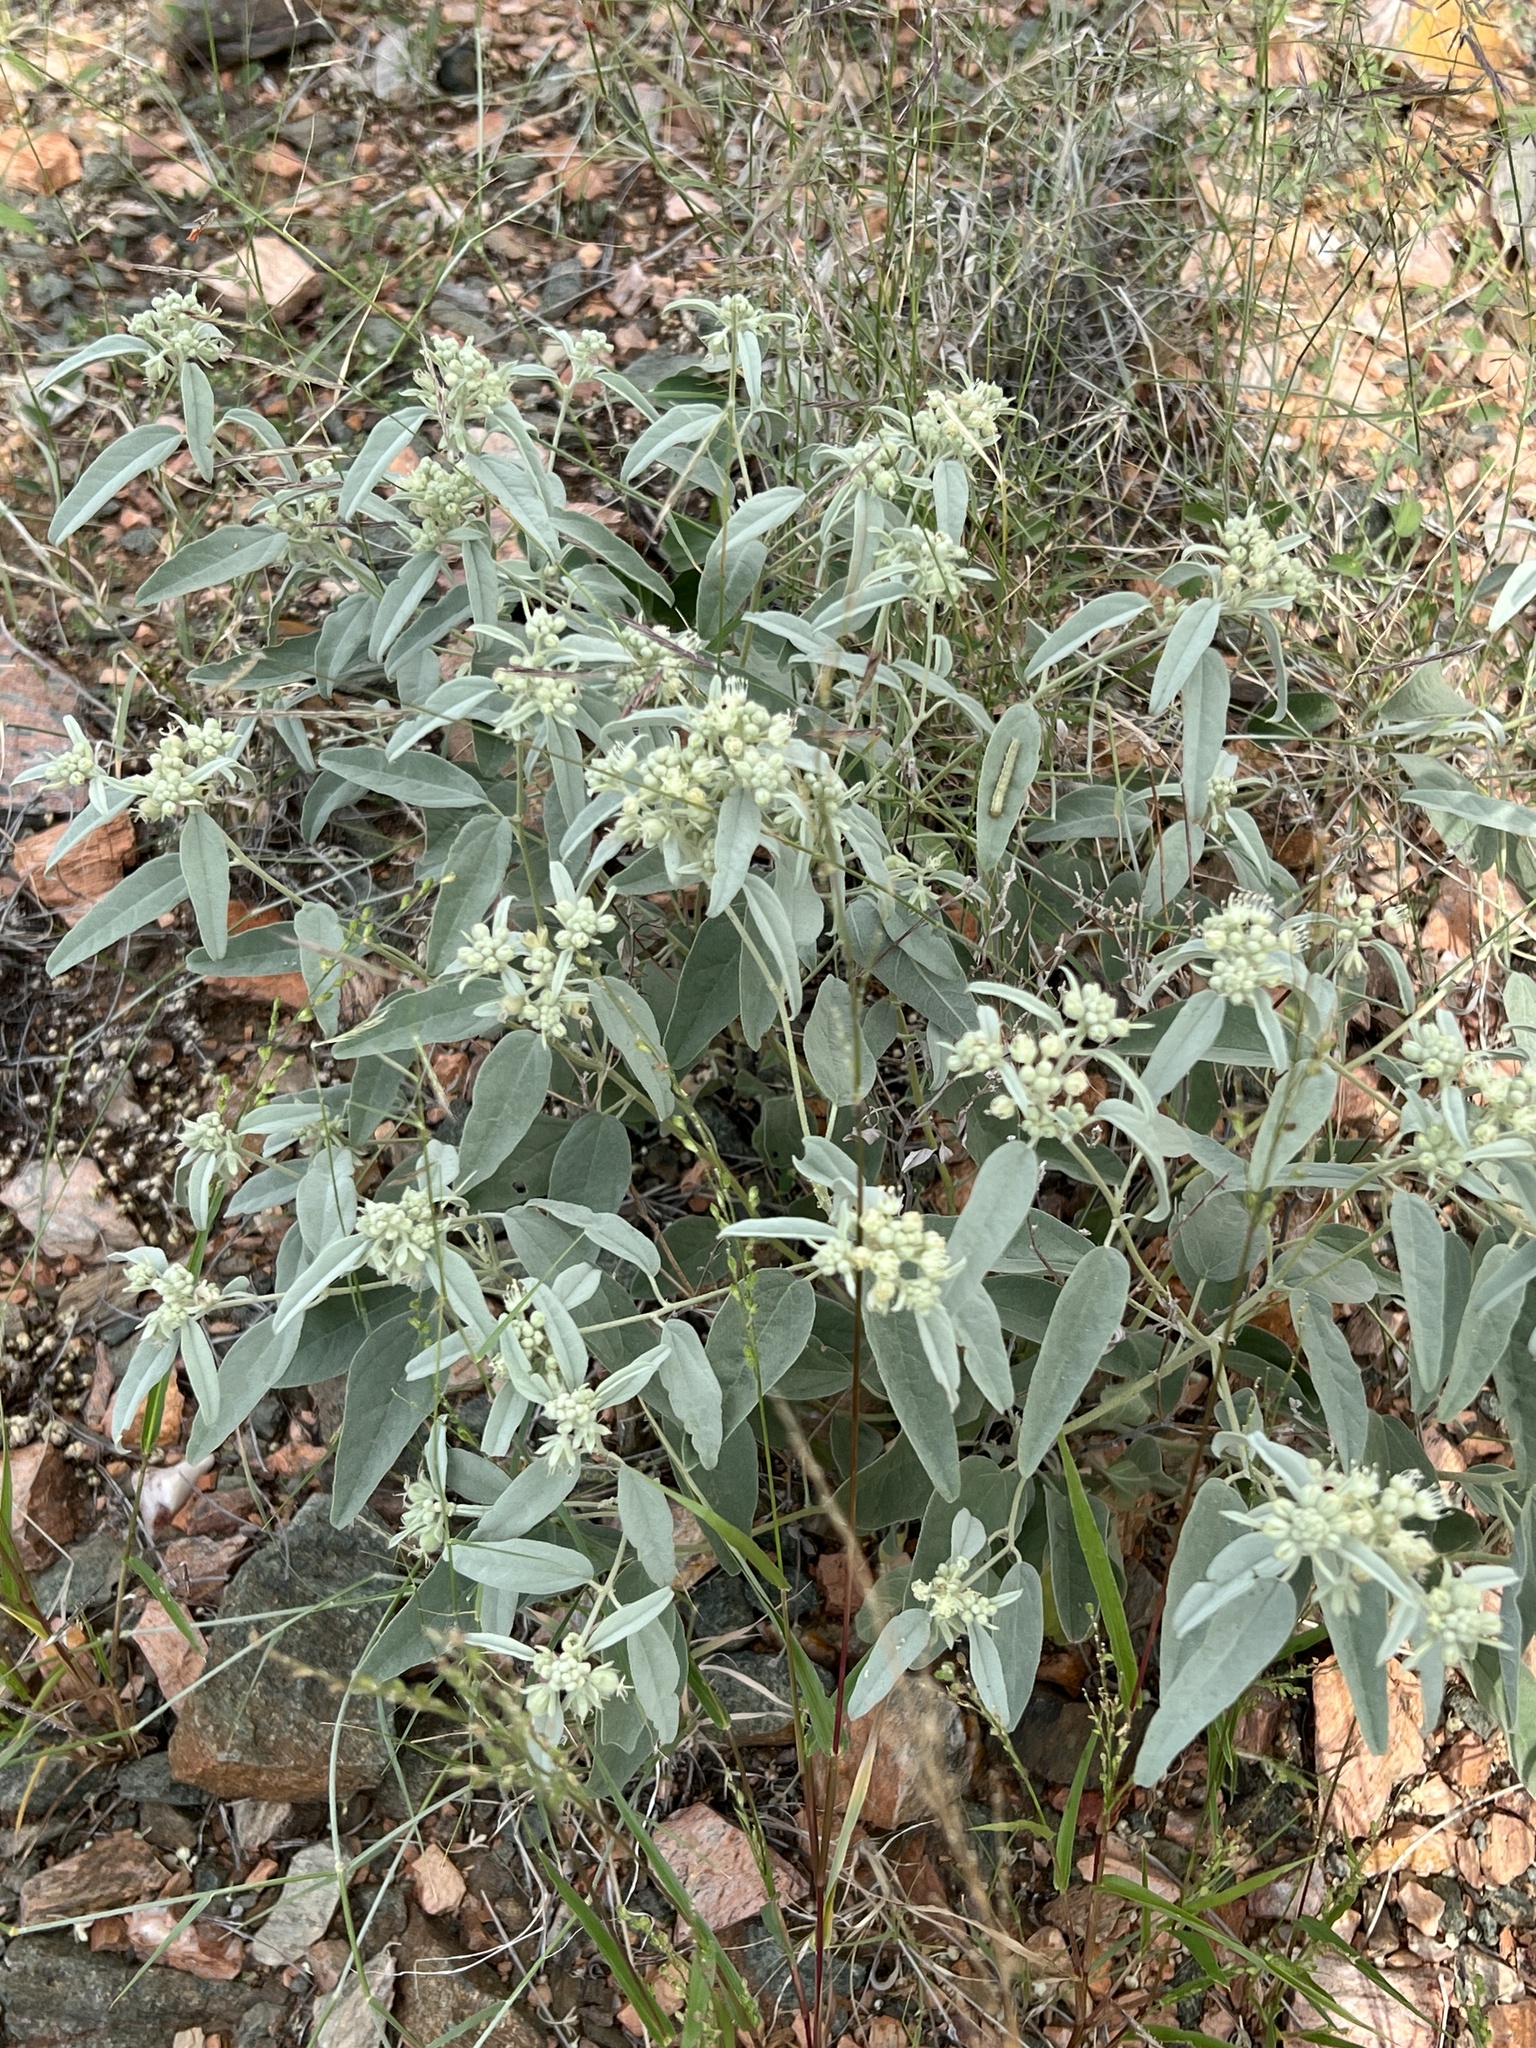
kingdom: Plantae
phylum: Tracheophyta
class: Magnoliopsida
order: Malpighiales
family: Euphorbiaceae
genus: Croton
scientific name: Croton pottsii
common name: Leatherweed
